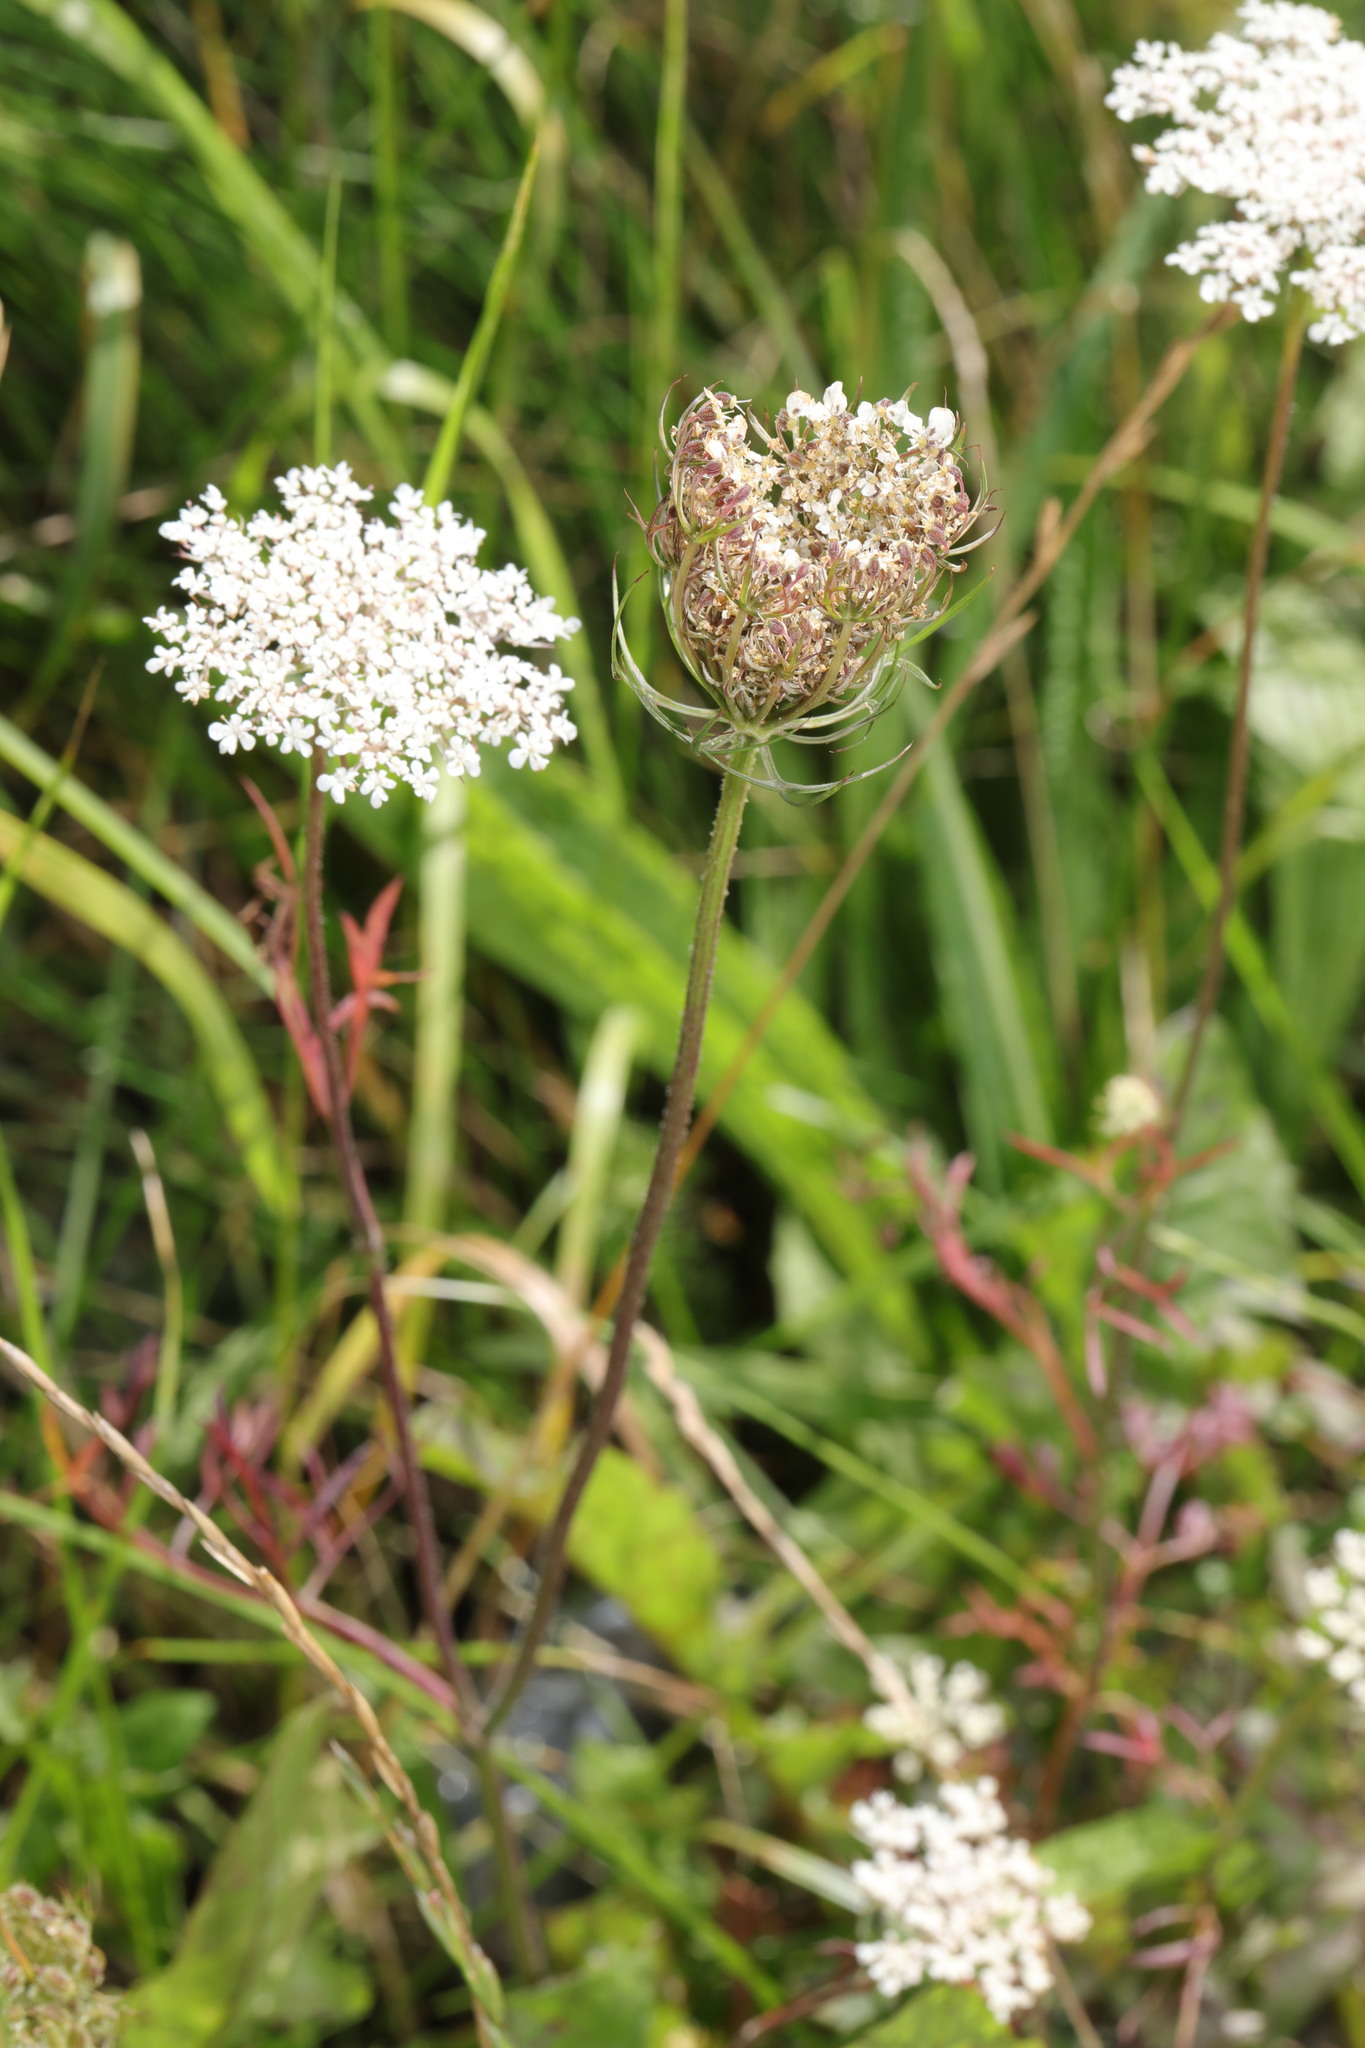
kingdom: Plantae
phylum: Tracheophyta
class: Magnoliopsida
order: Apiales
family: Apiaceae
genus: Daucus
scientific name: Daucus carota
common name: Wild carrot
